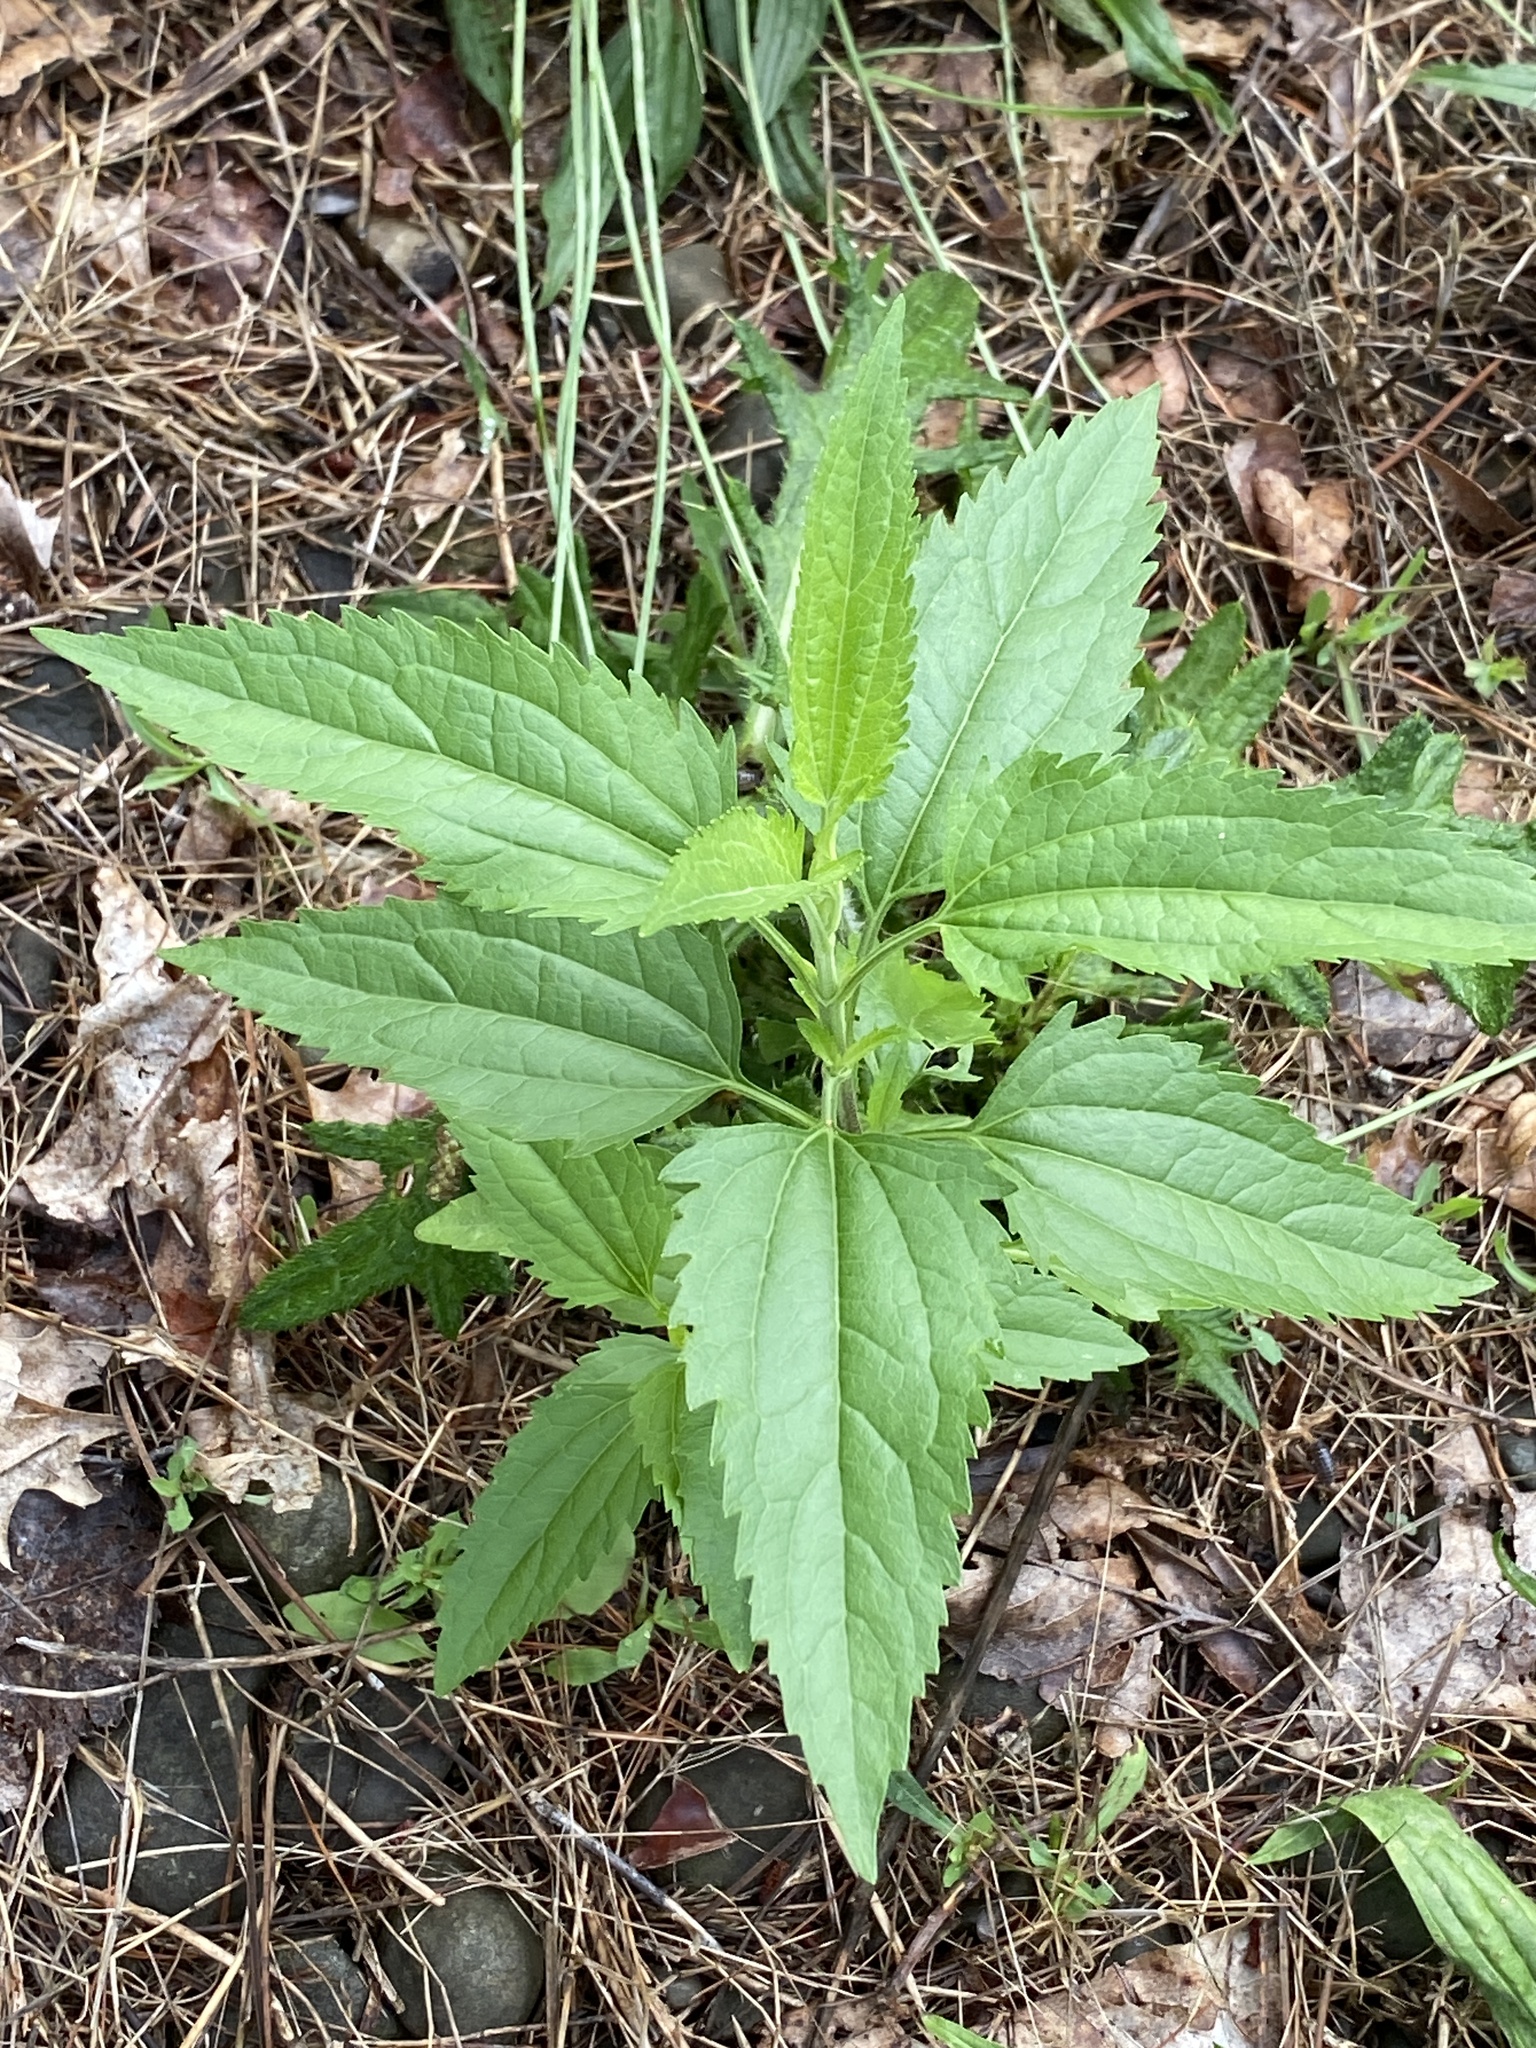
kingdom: Plantae
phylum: Tracheophyta
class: Magnoliopsida
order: Asterales
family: Asteraceae
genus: Eupatorium
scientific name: Eupatorium serotinum
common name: Late boneset
